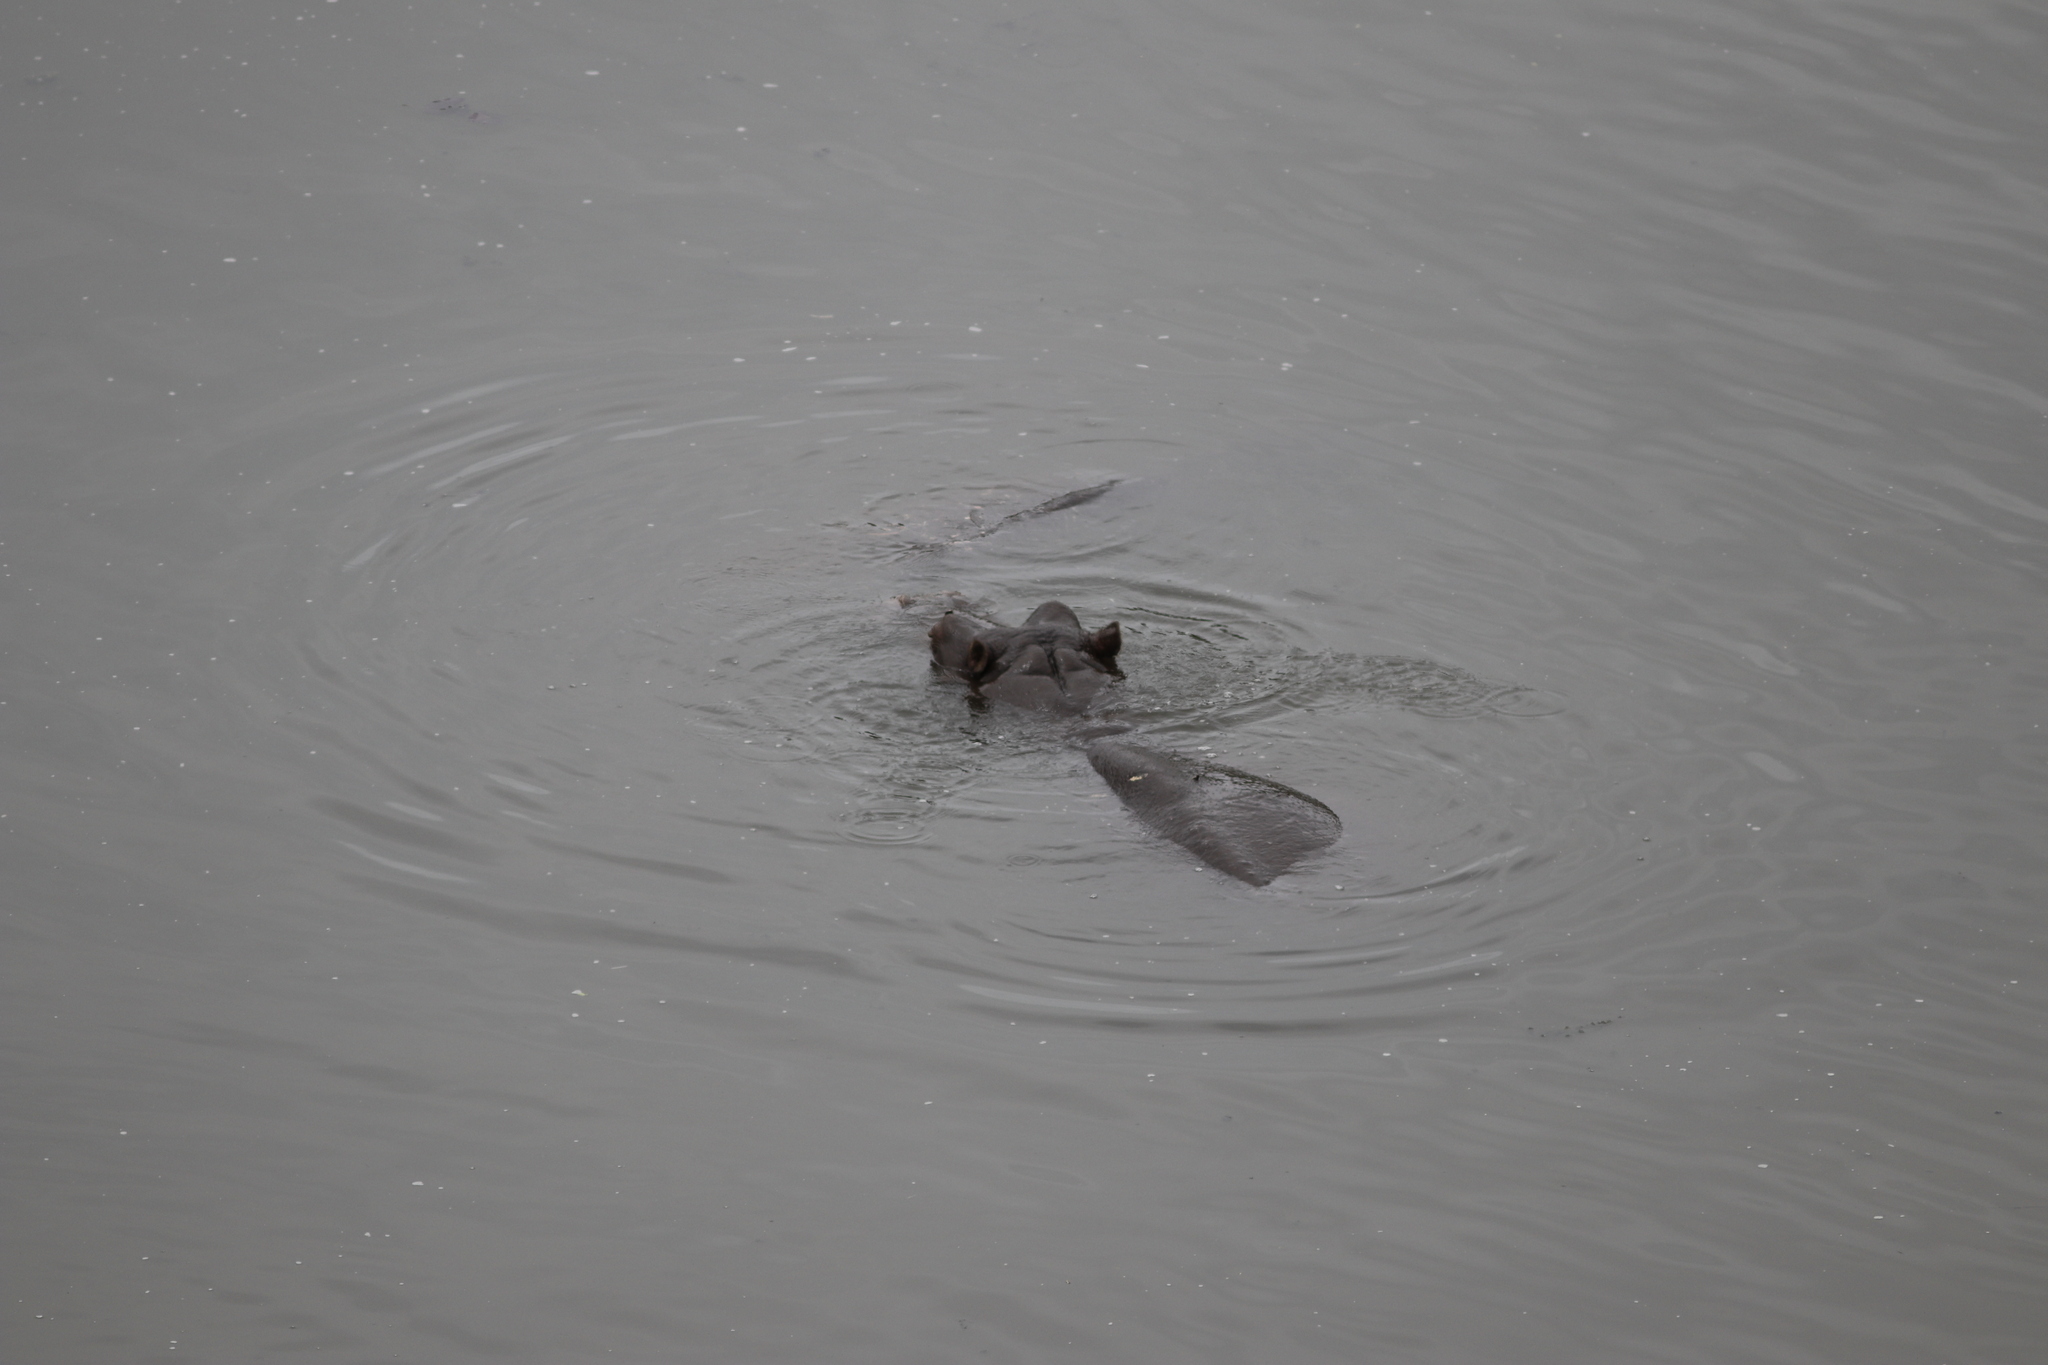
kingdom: Animalia
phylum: Chordata
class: Mammalia
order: Artiodactyla
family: Hippopotamidae
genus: Hippopotamus
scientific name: Hippopotamus amphibius
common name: Common hippopotamus
